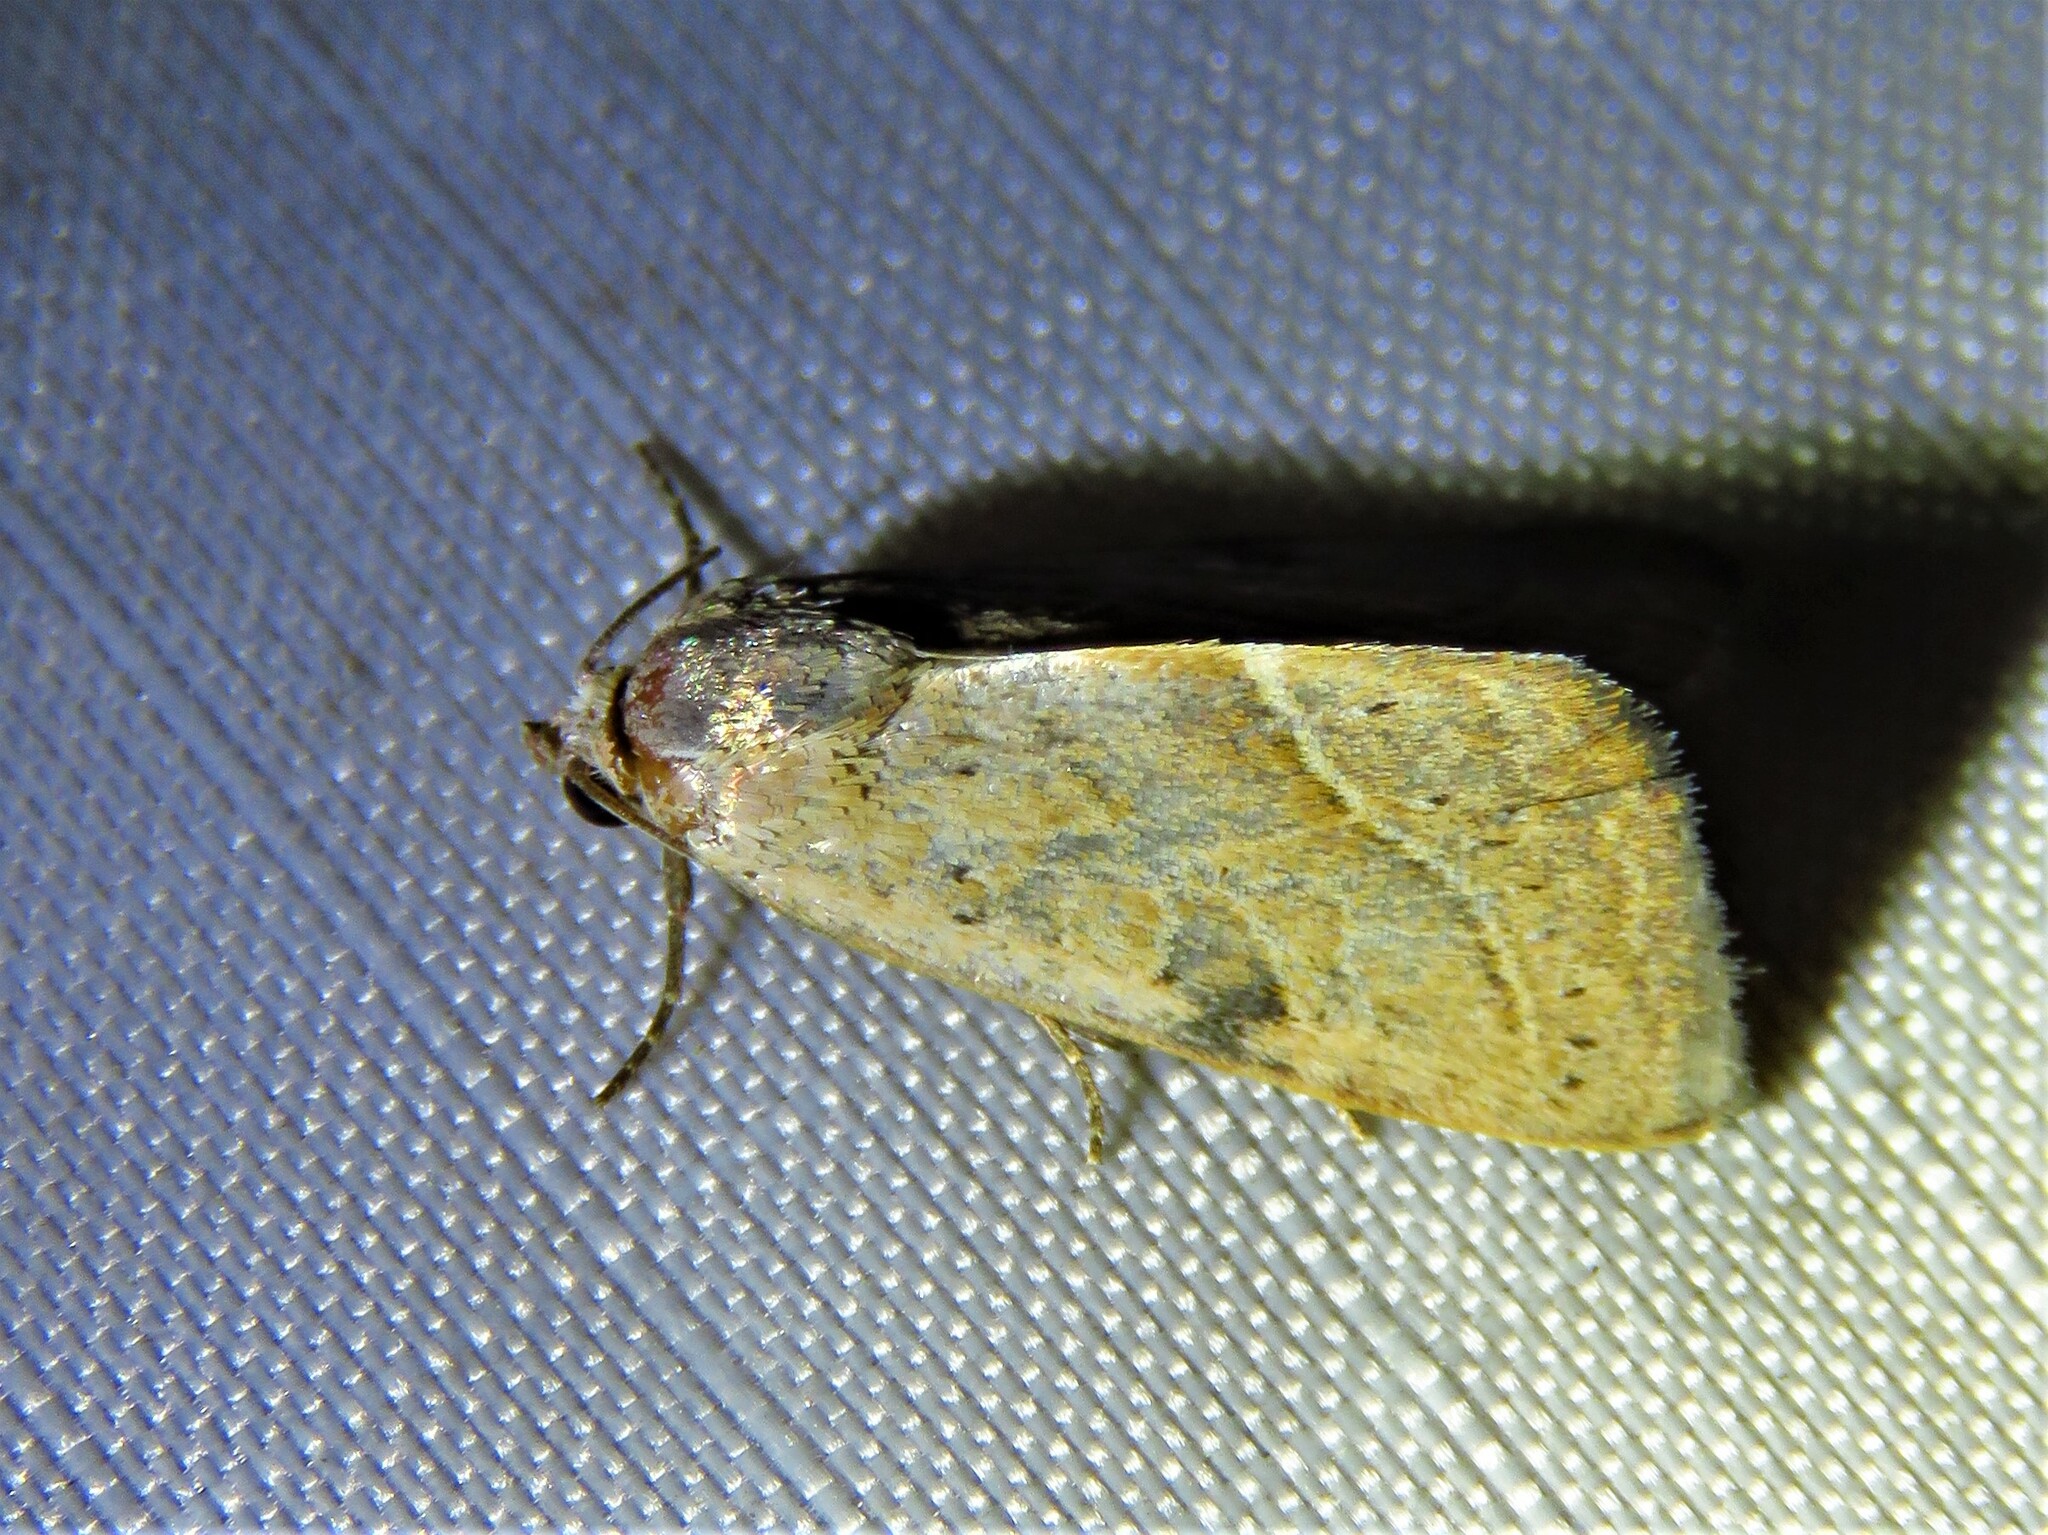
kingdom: Animalia
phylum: Arthropoda
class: Insecta
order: Lepidoptera
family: Noctuidae
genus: Galgula
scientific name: Galgula partita
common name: Wedgeling
